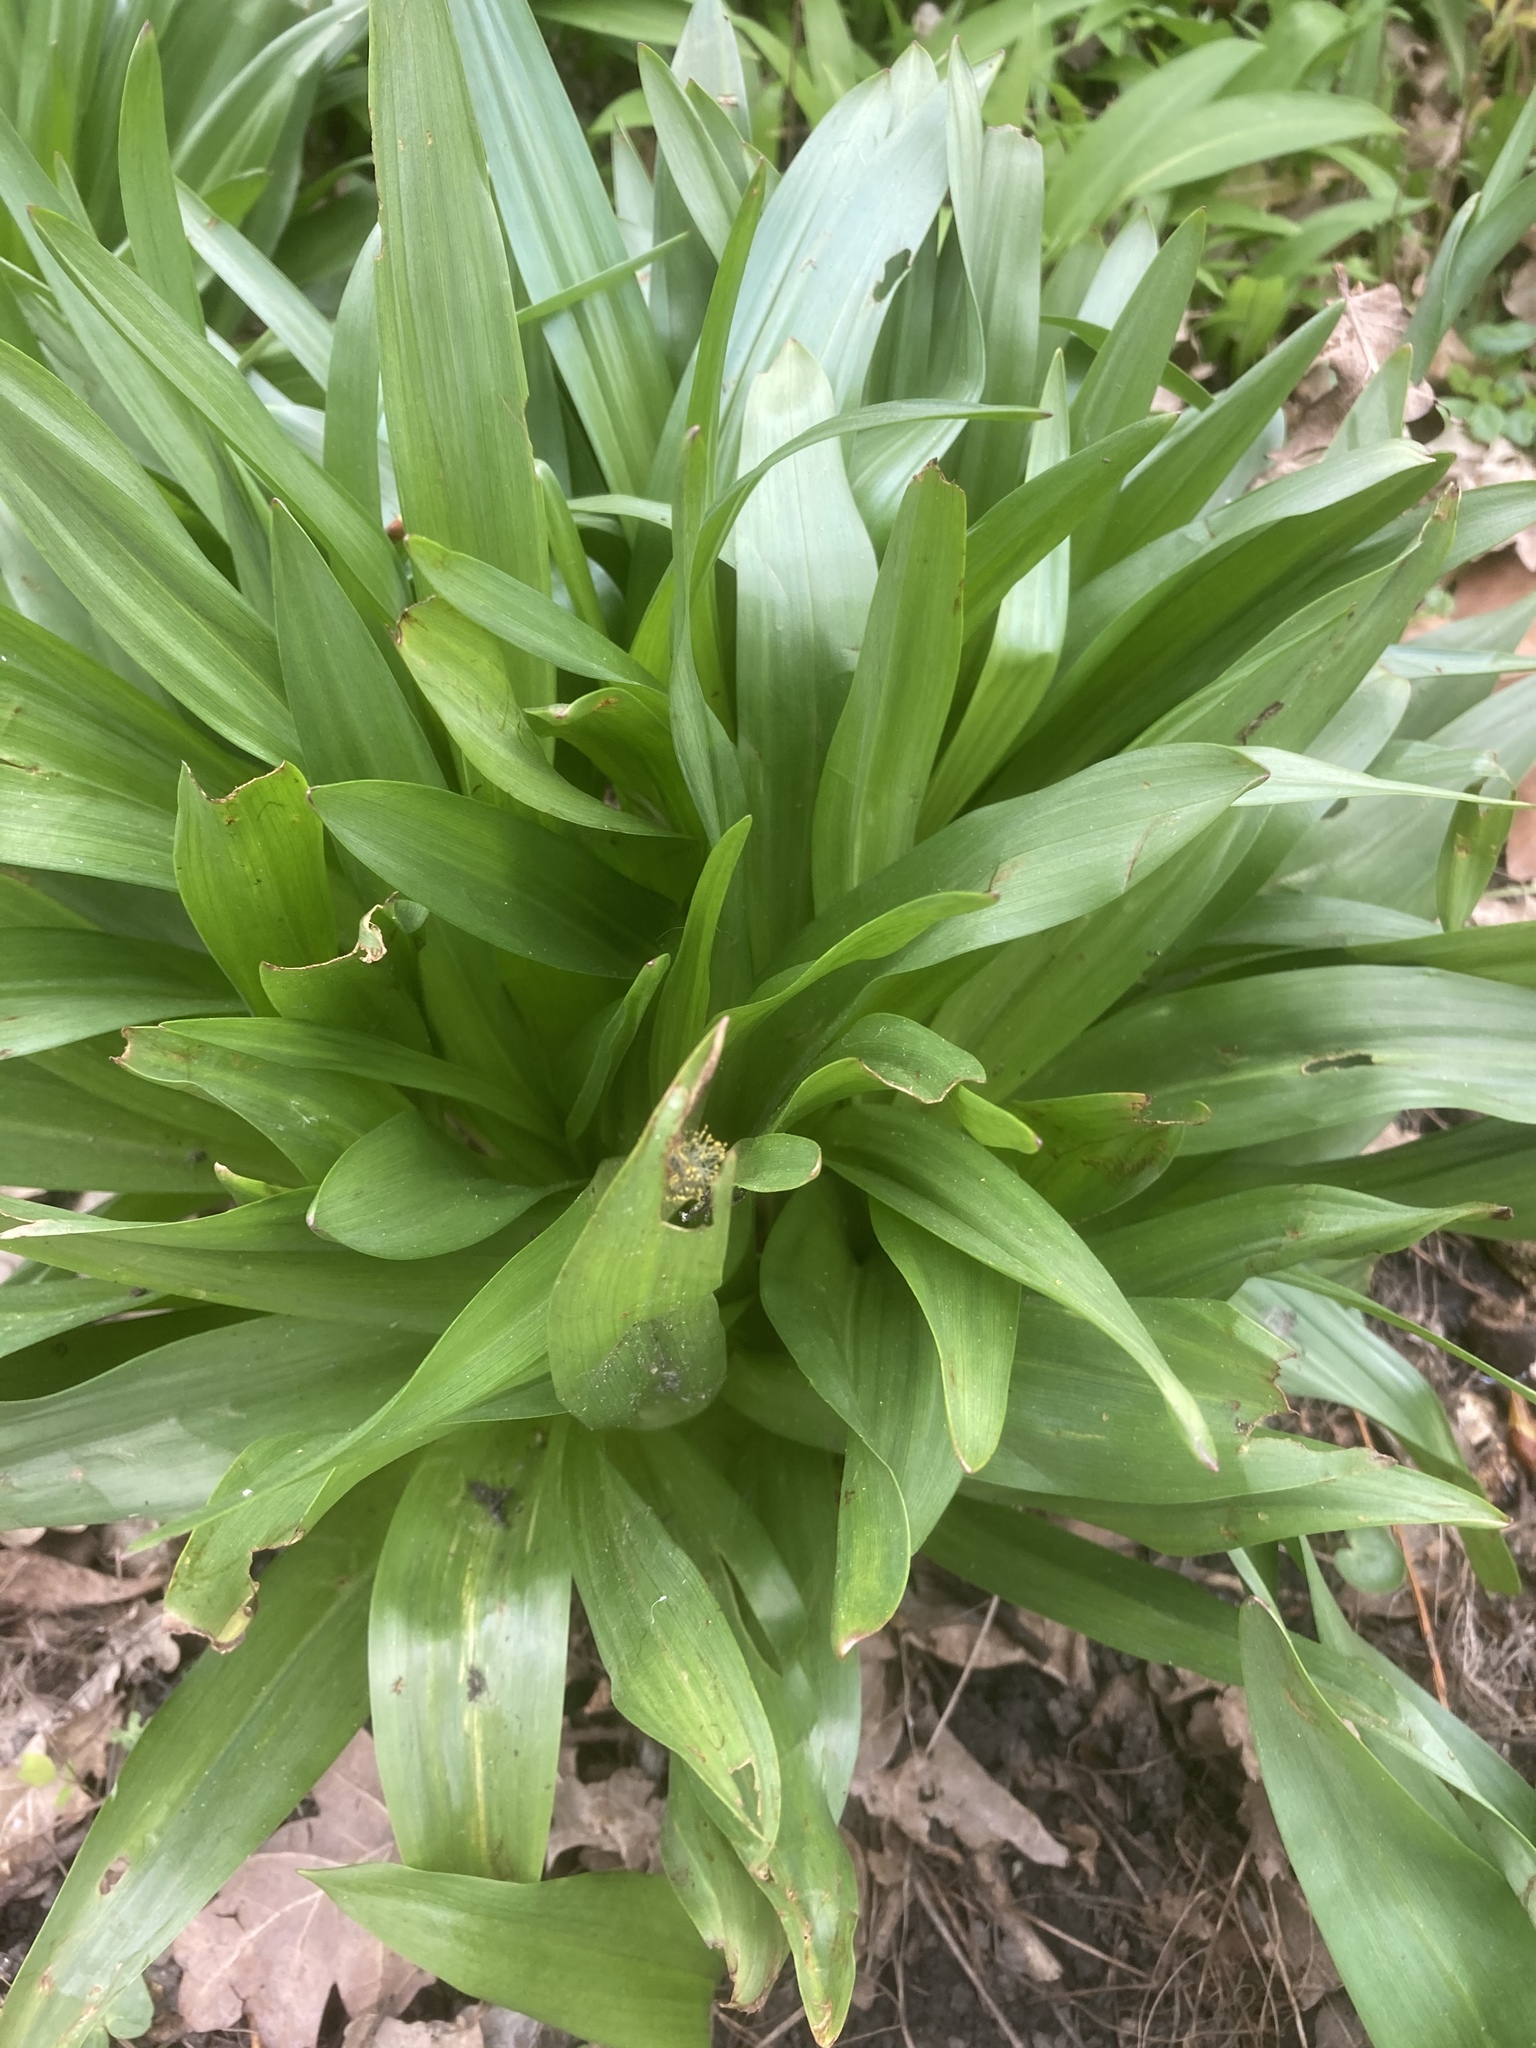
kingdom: Plantae
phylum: Tracheophyta
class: Liliopsida
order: Asparagales
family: Amaryllidaceae
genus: Allium
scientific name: Allium ursinum
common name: Ramsons
